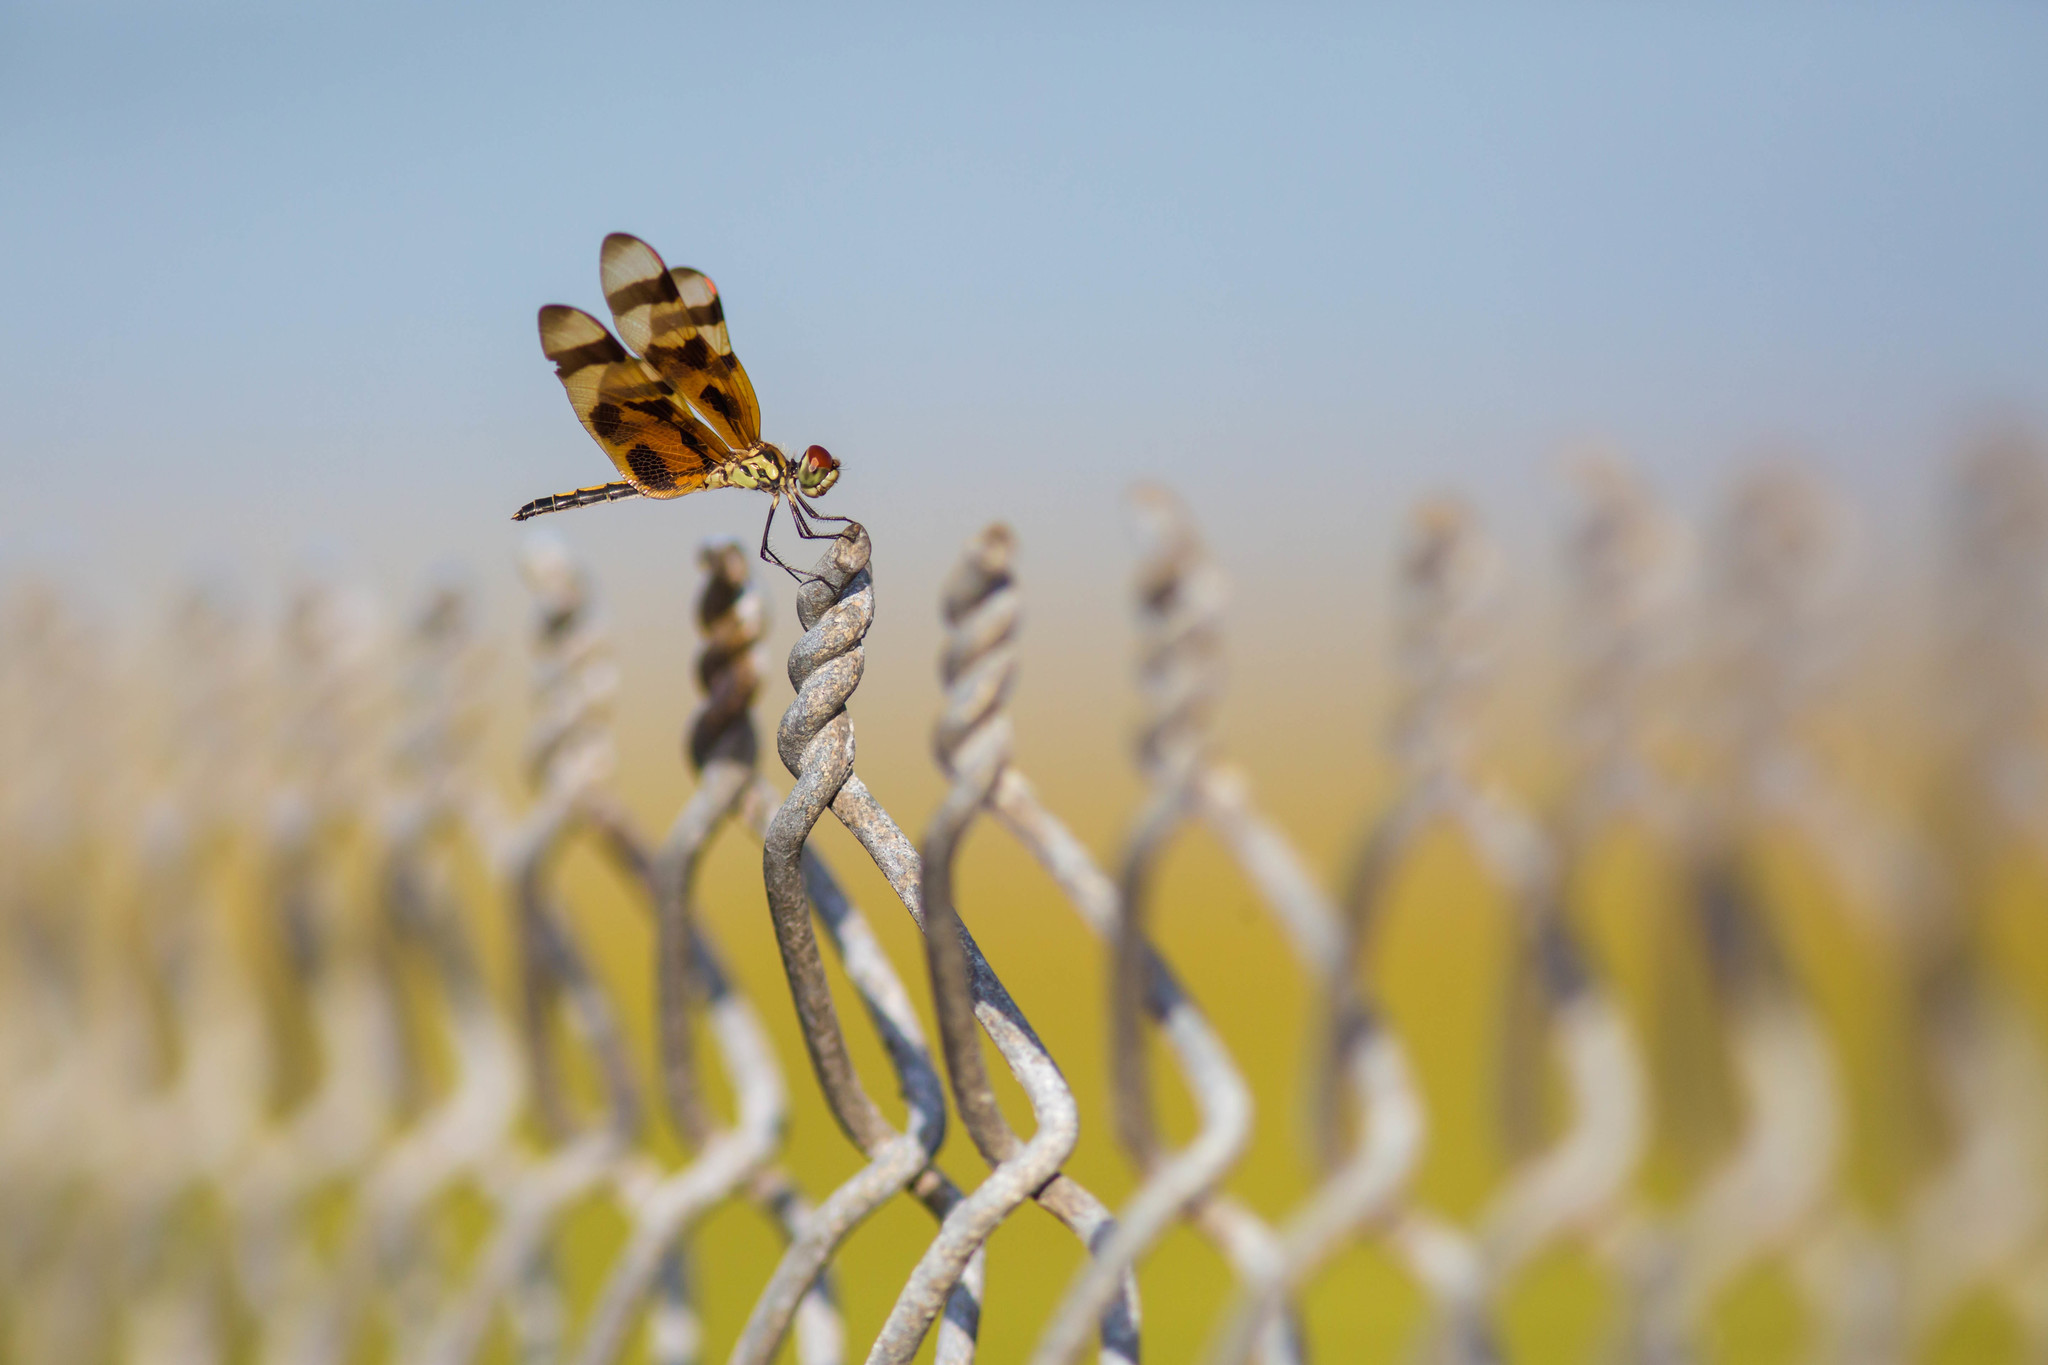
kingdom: Animalia
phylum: Arthropoda
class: Insecta
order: Odonata
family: Libellulidae
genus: Celithemis
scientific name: Celithemis eponina
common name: Halloween pennant
